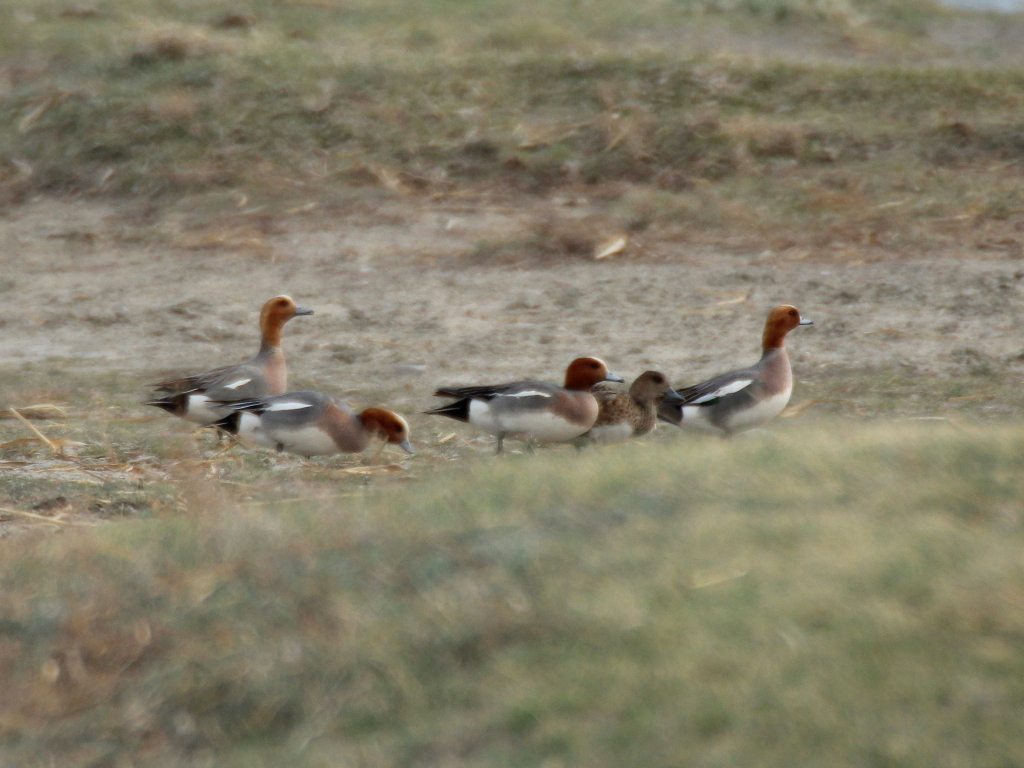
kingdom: Animalia
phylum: Chordata
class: Aves
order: Anseriformes
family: Anatidae
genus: Mareca
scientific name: Mareca penelope
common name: Eurasian wigeon
